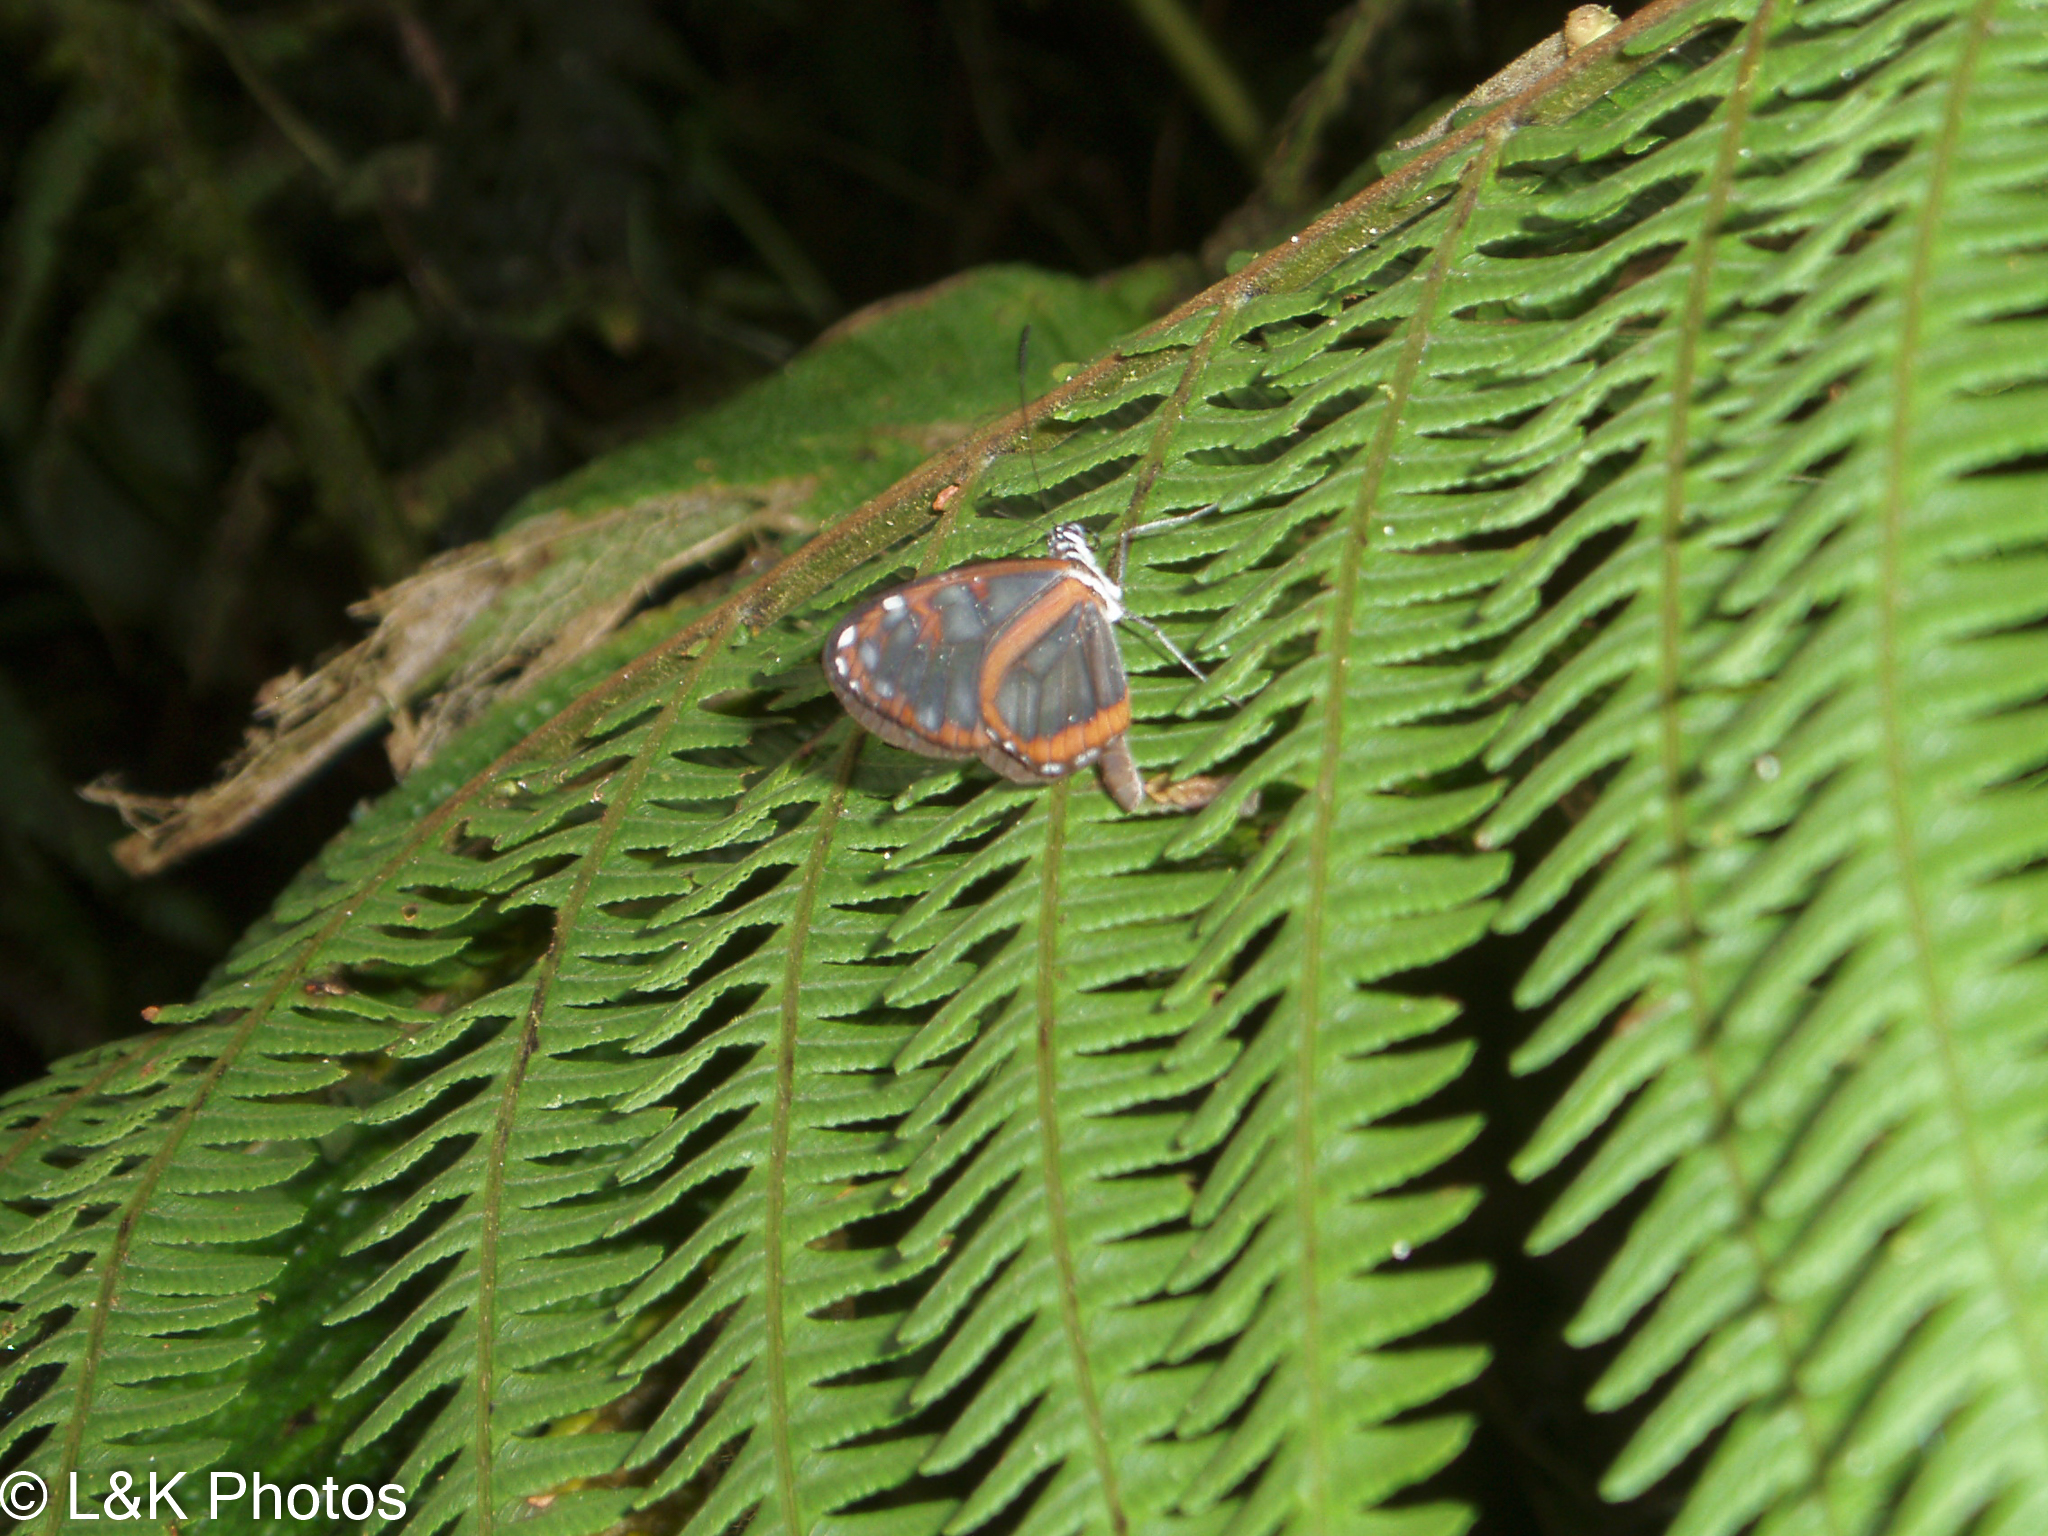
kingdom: Animalia
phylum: Arthropoda
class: Insecta
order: Lepidoptera
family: Nymphalidae
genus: Oleria
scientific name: Oleria amalda
